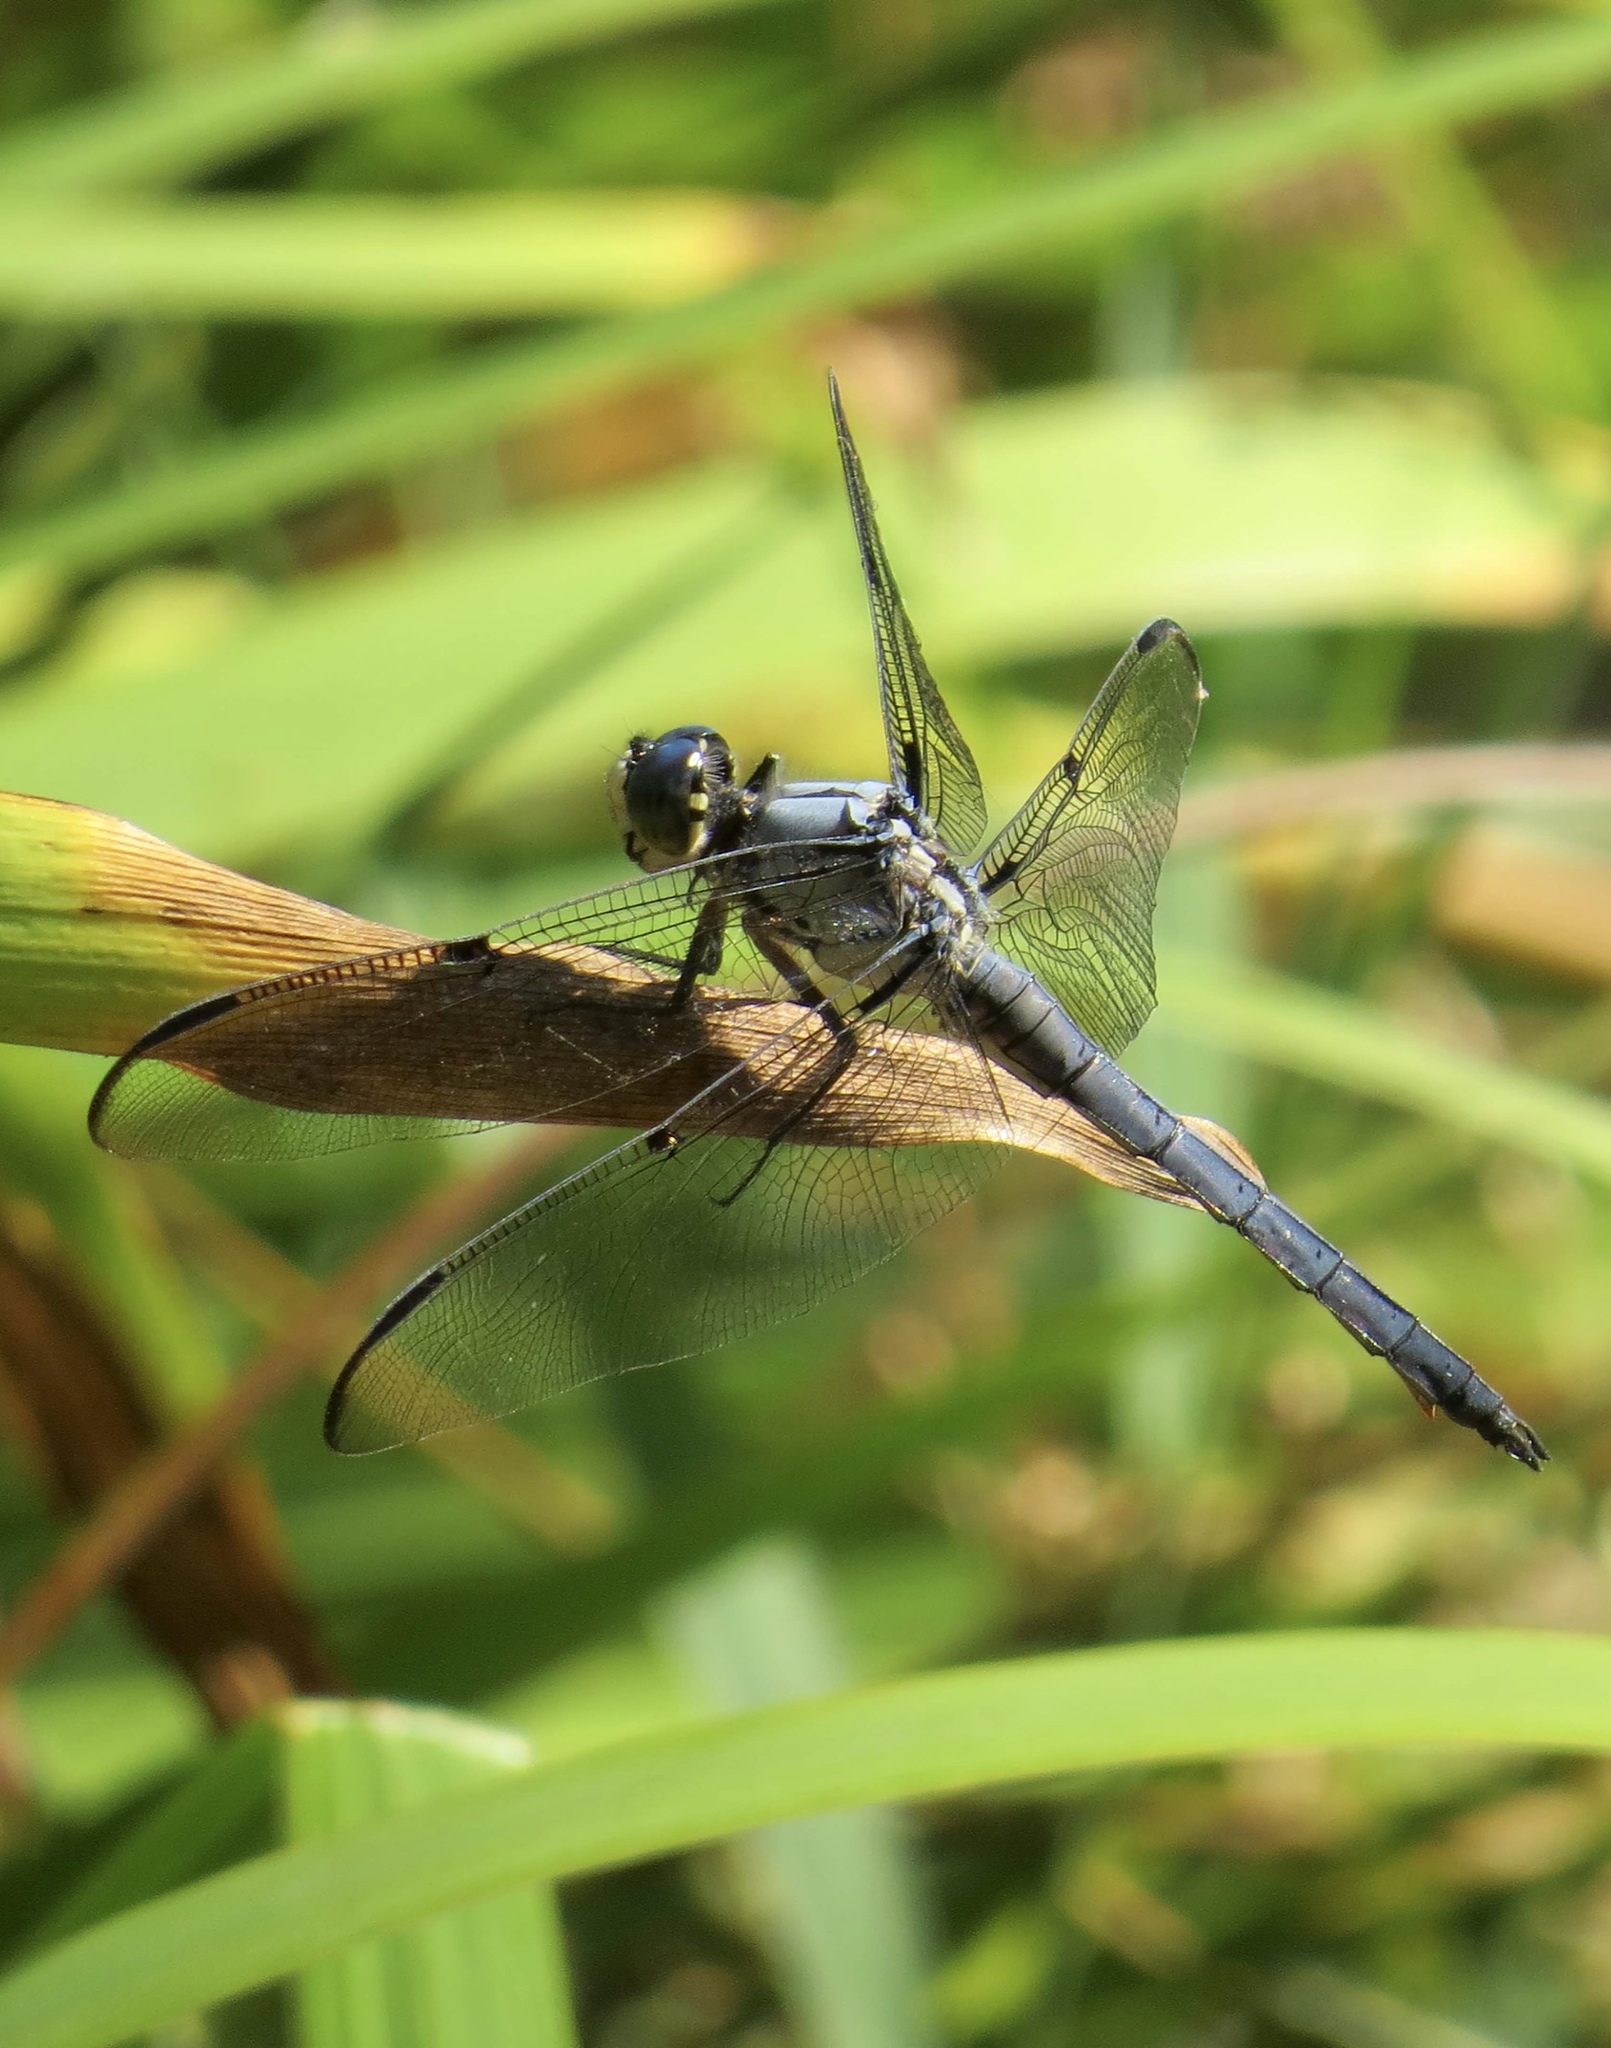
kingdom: Animalia
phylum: Arthropoda
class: Insecta
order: Odonata
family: Libellulidae
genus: Libellula
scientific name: Libellula vibrans
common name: Great blue skimmer
